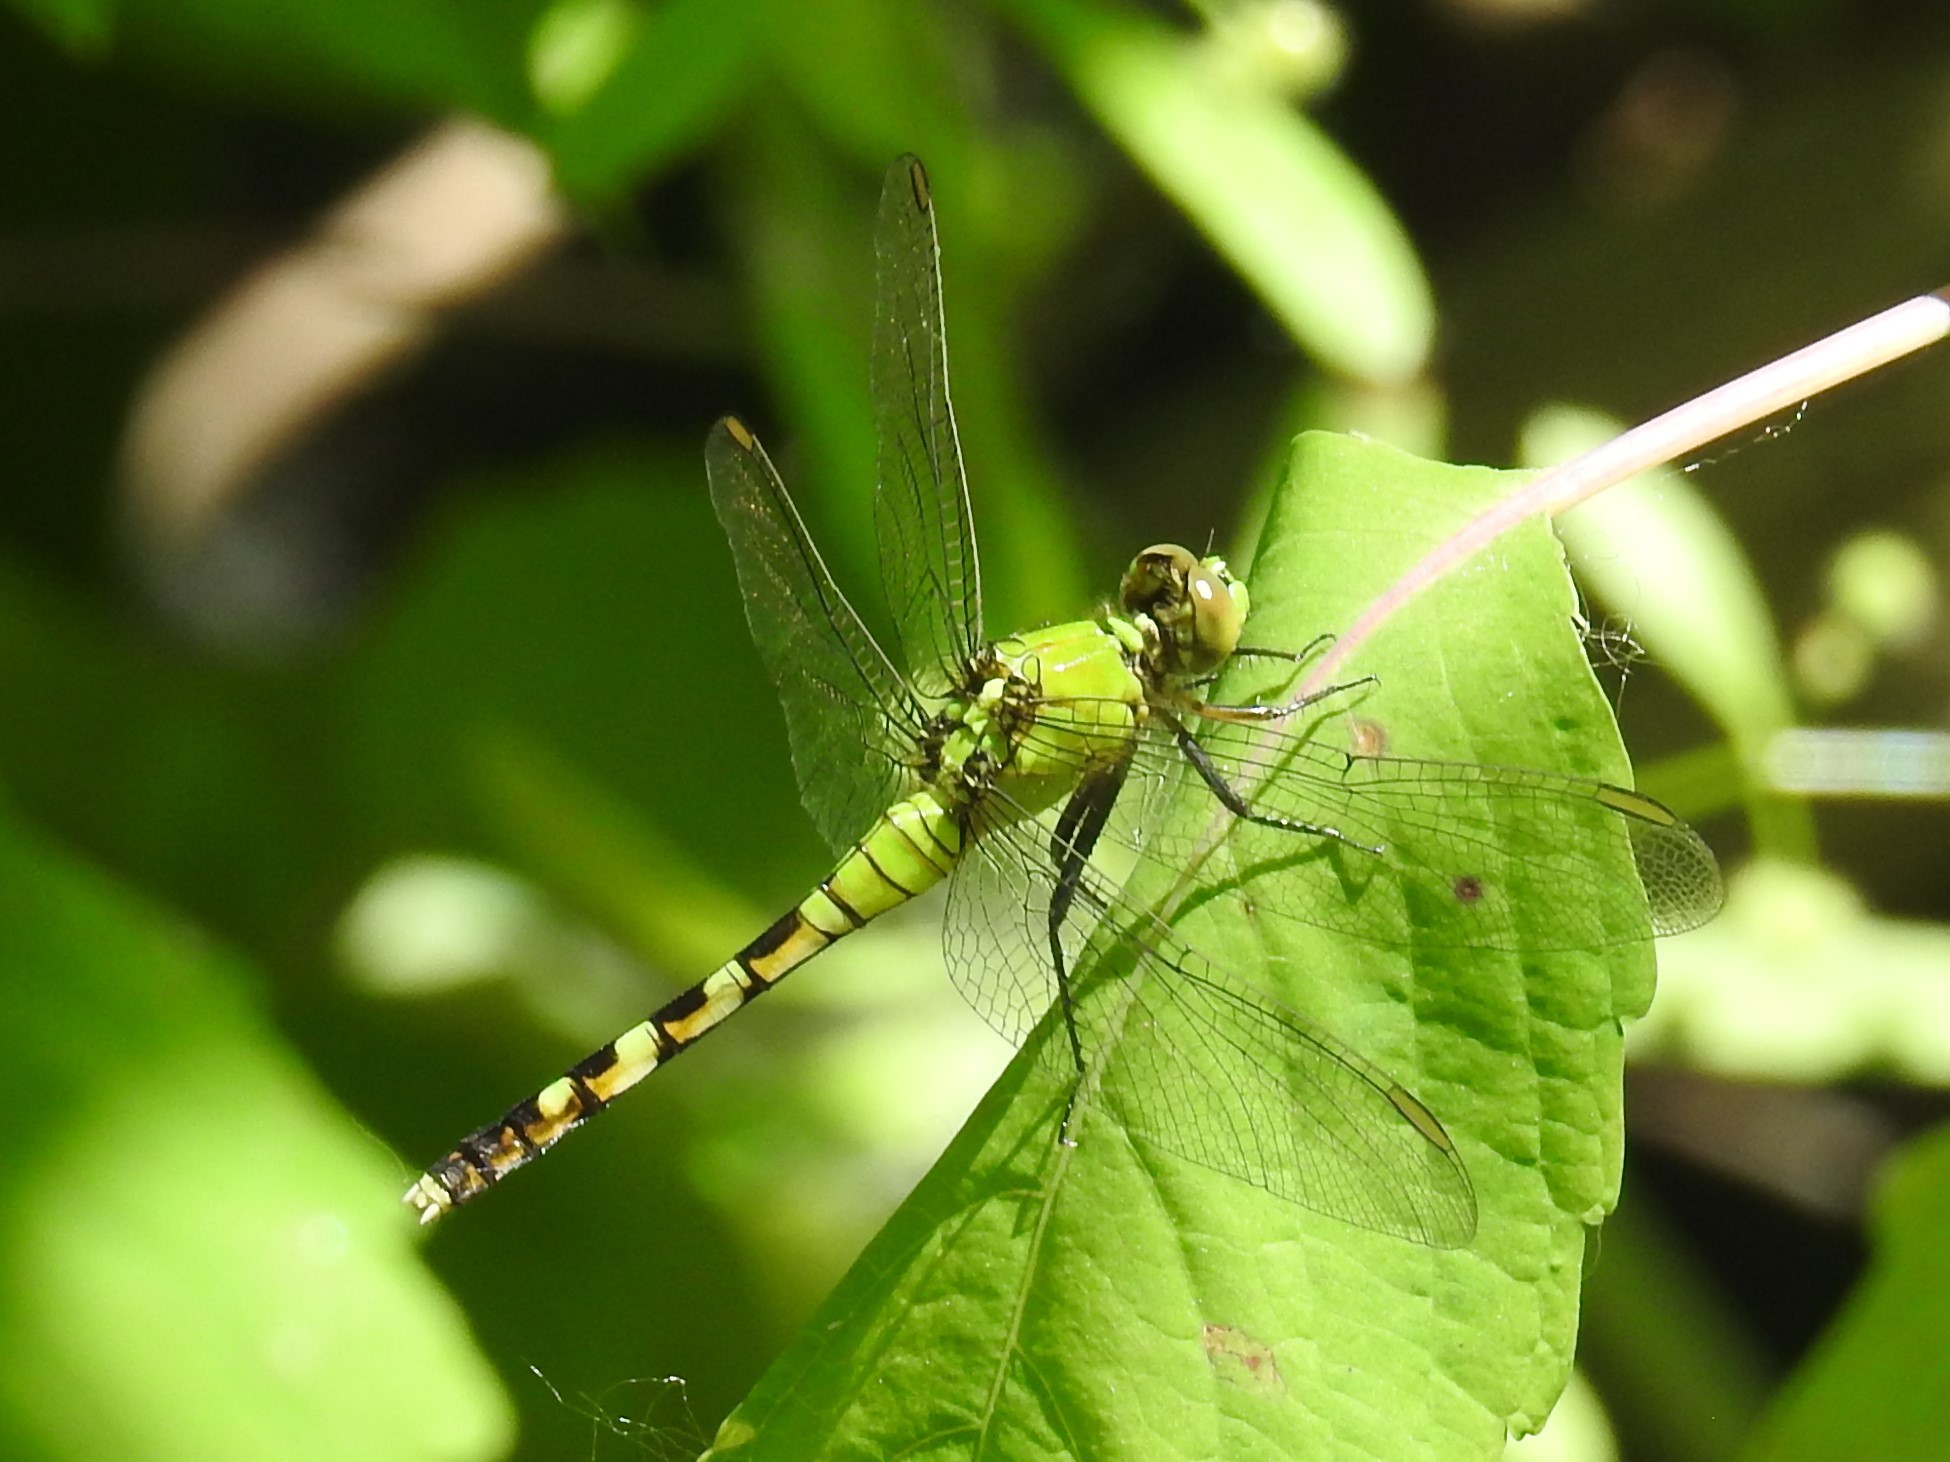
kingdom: Animalia
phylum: Arthropoda
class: Insecta
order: Odonata
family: Libellulidae
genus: Erythemis
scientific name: Erythemis simplicicollis
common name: Eastern pondhawk
